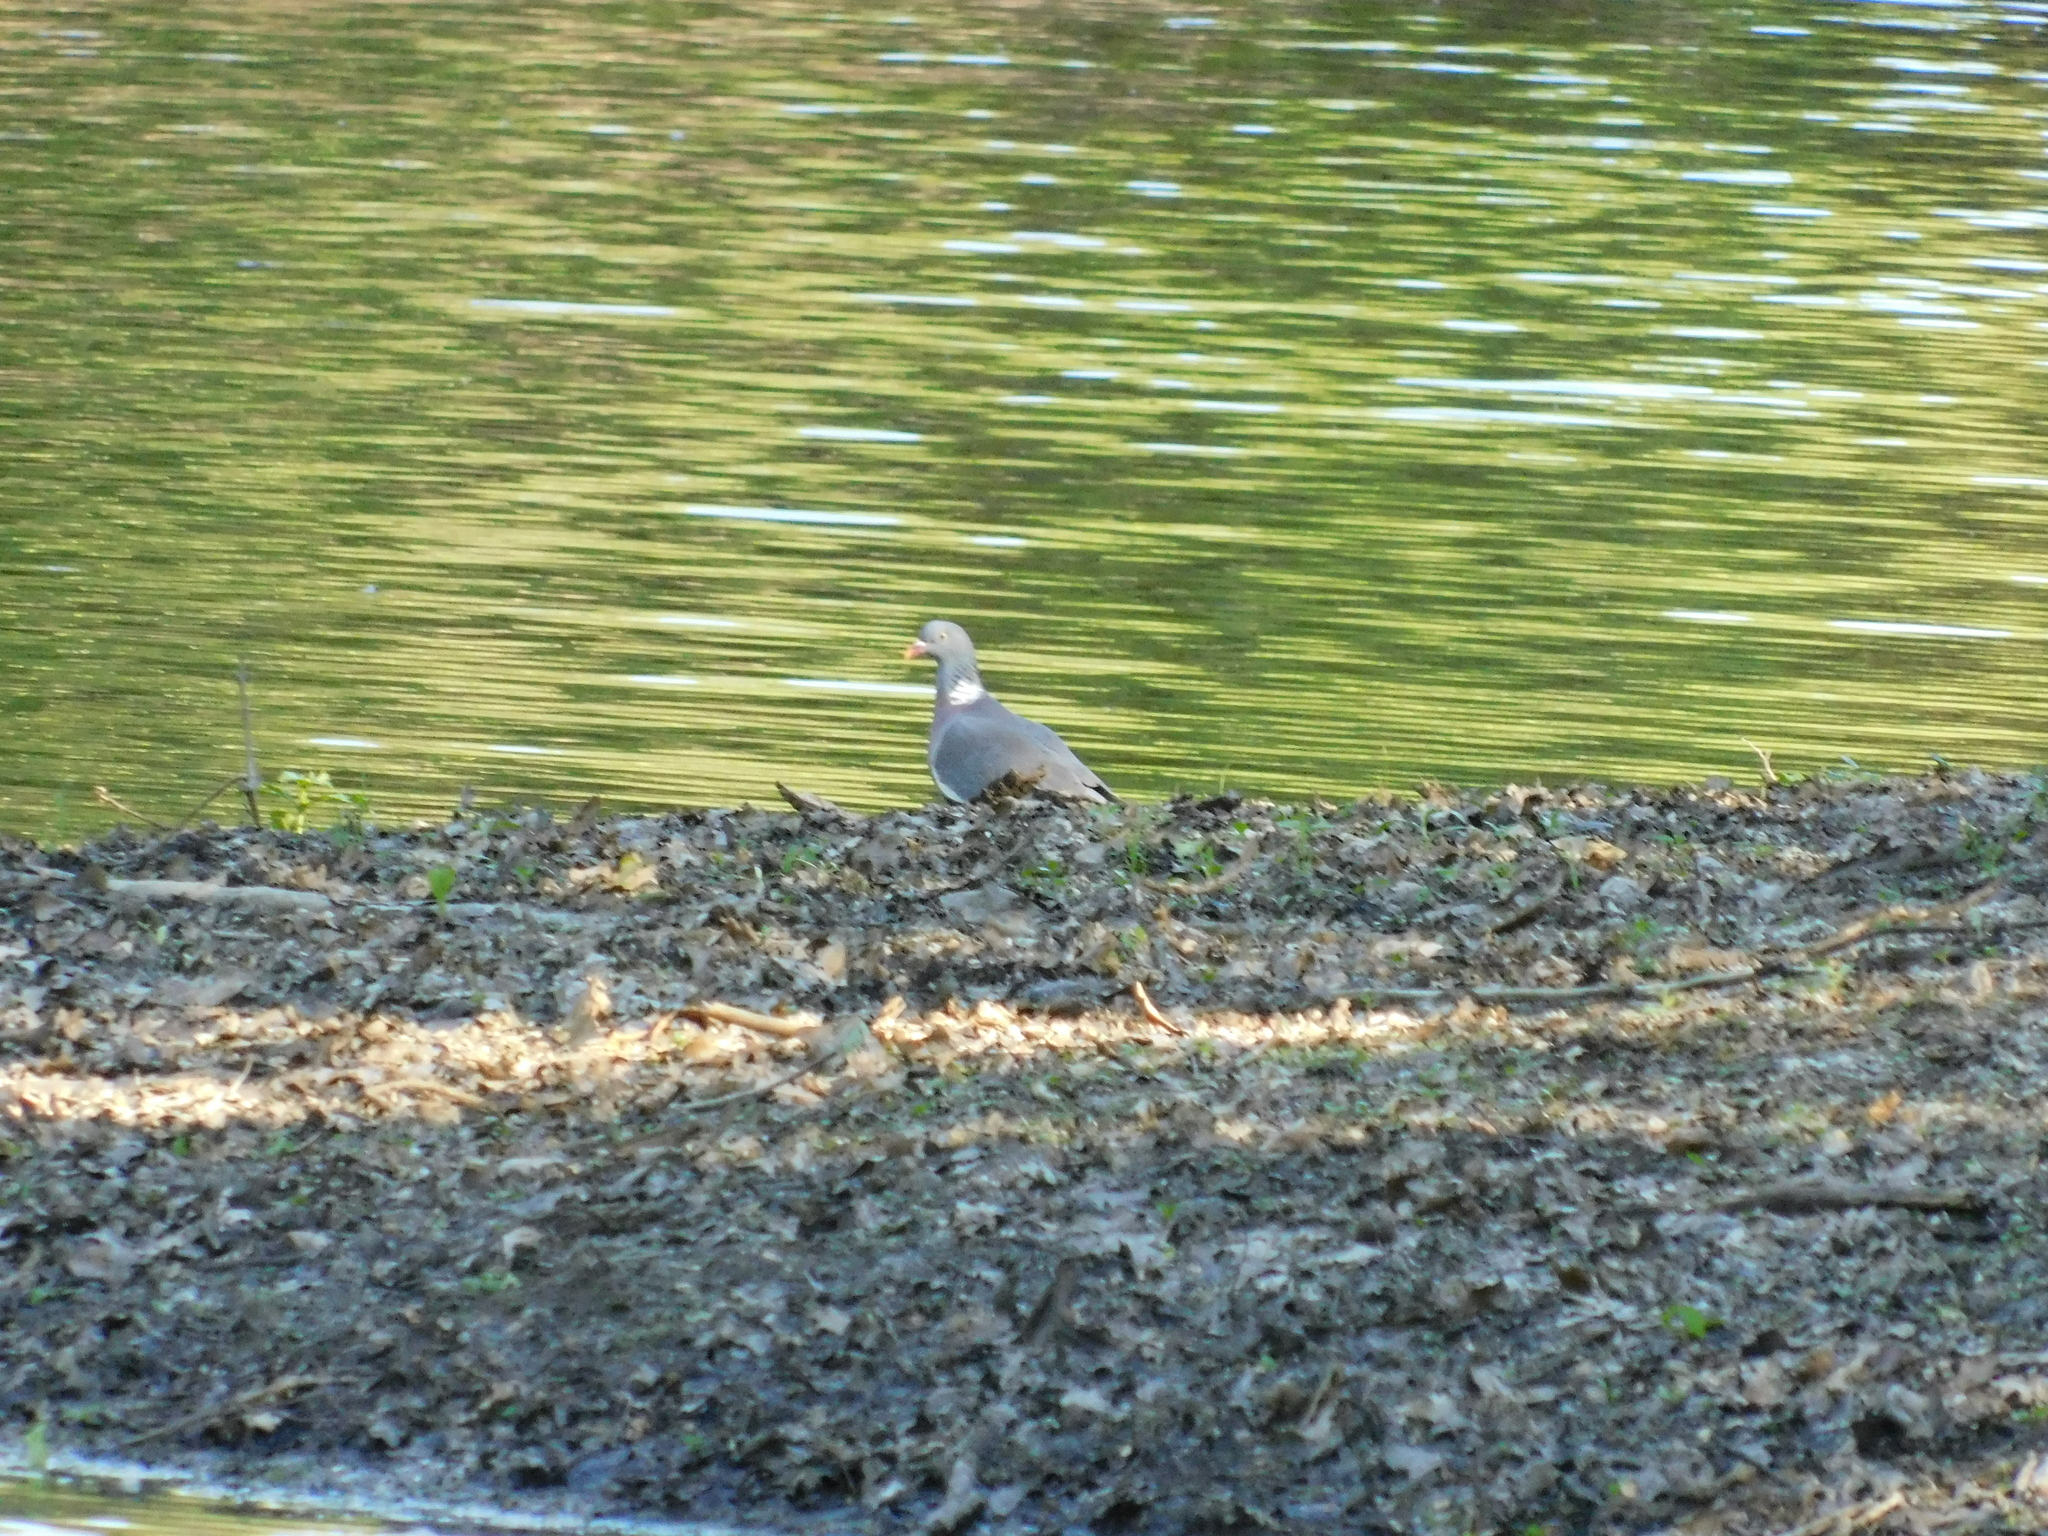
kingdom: Animalia
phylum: Chordata
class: Aves
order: Columbiformes
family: Columbidae
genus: Columba
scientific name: Columba palumbus
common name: Common wood pigeon
